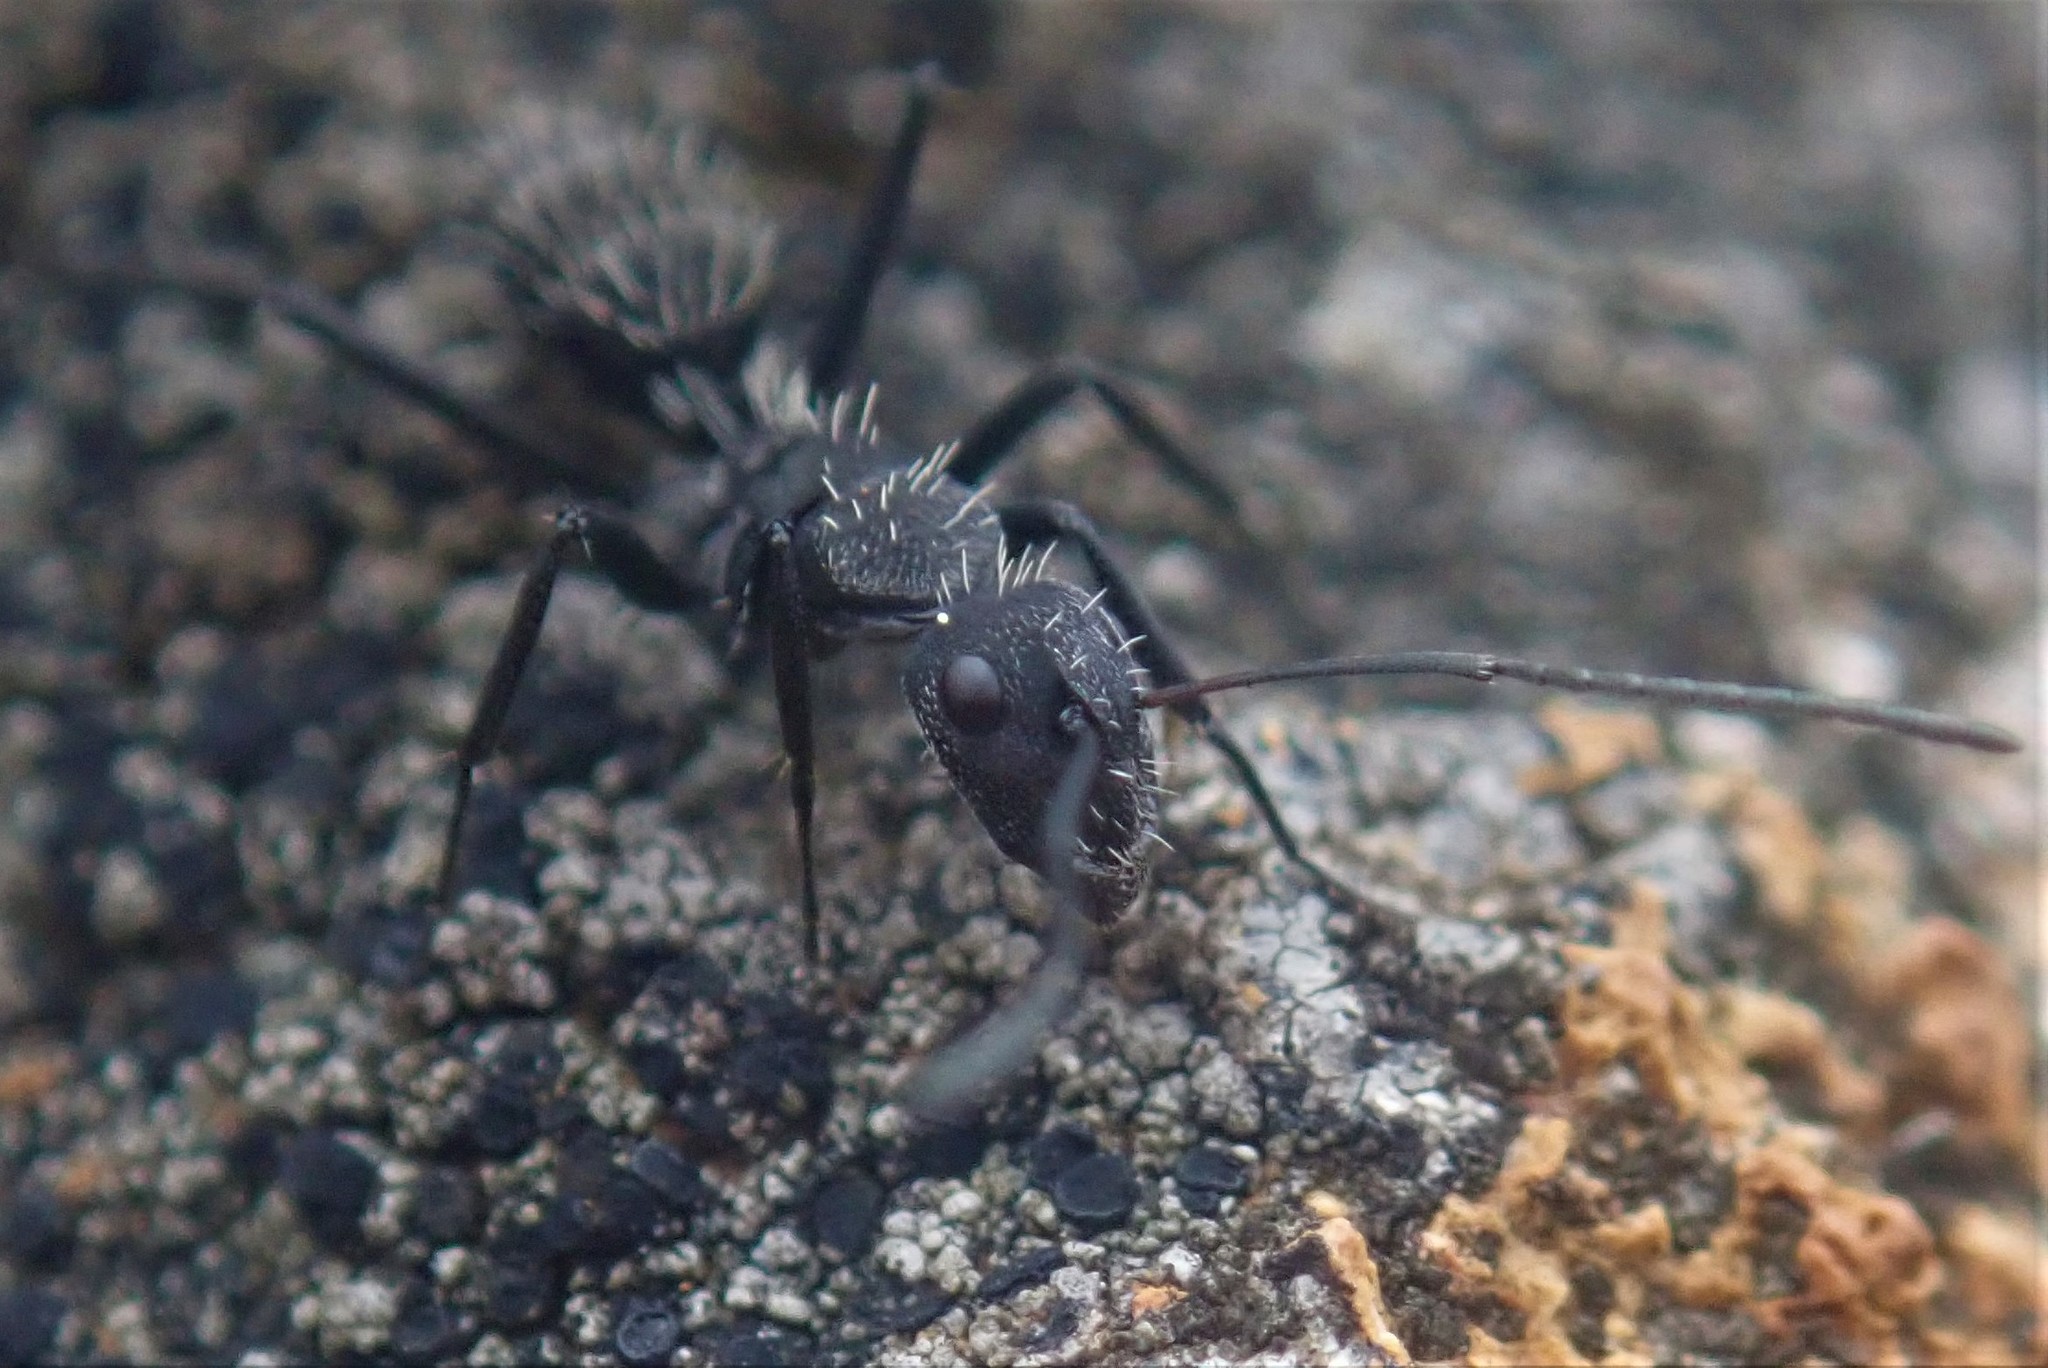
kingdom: Animalia
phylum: Arthropoda
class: Insecta
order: Hymenoptera
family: Formicidae
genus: Camponotus
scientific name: Camponotus niveosetosus
